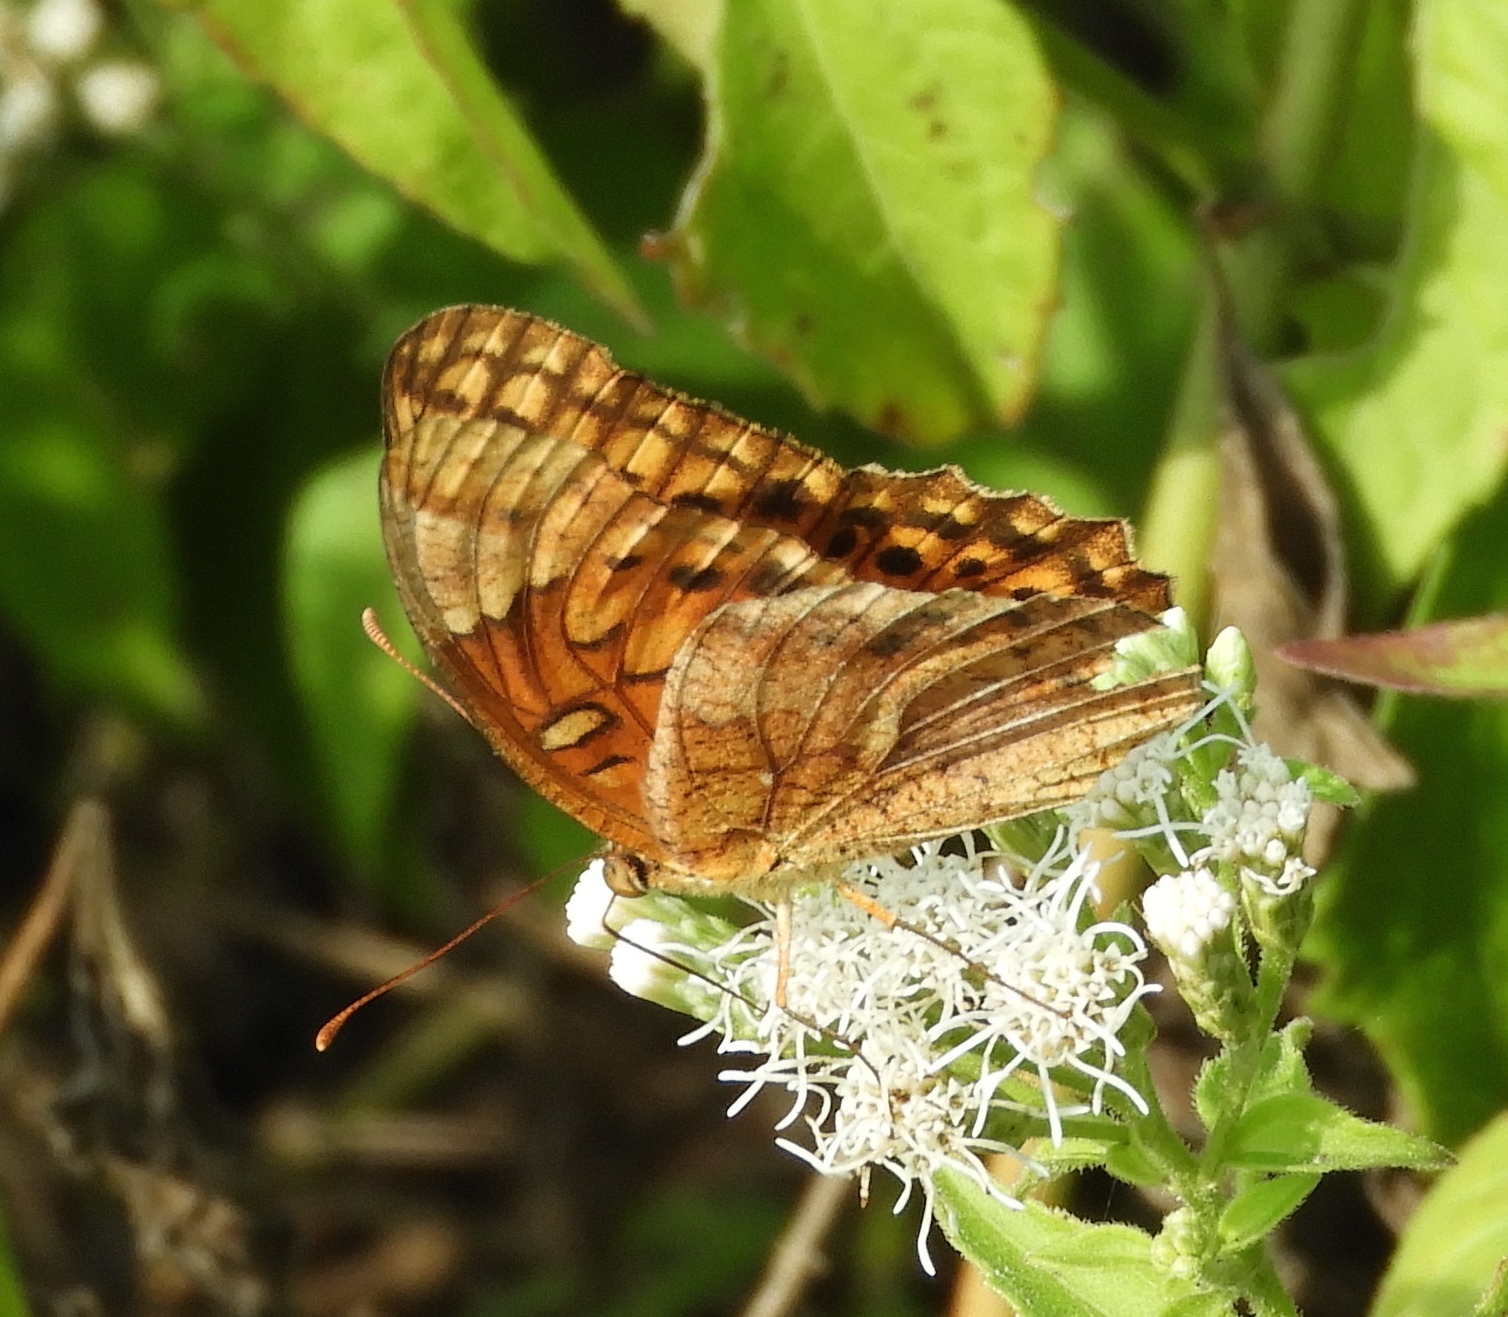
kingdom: Animalia
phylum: Arthropoda
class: Insecta
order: Lepidoptera
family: Nymphalidae
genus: Euptoieta
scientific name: Euptoieta hegesia
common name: Mexican fritillary
